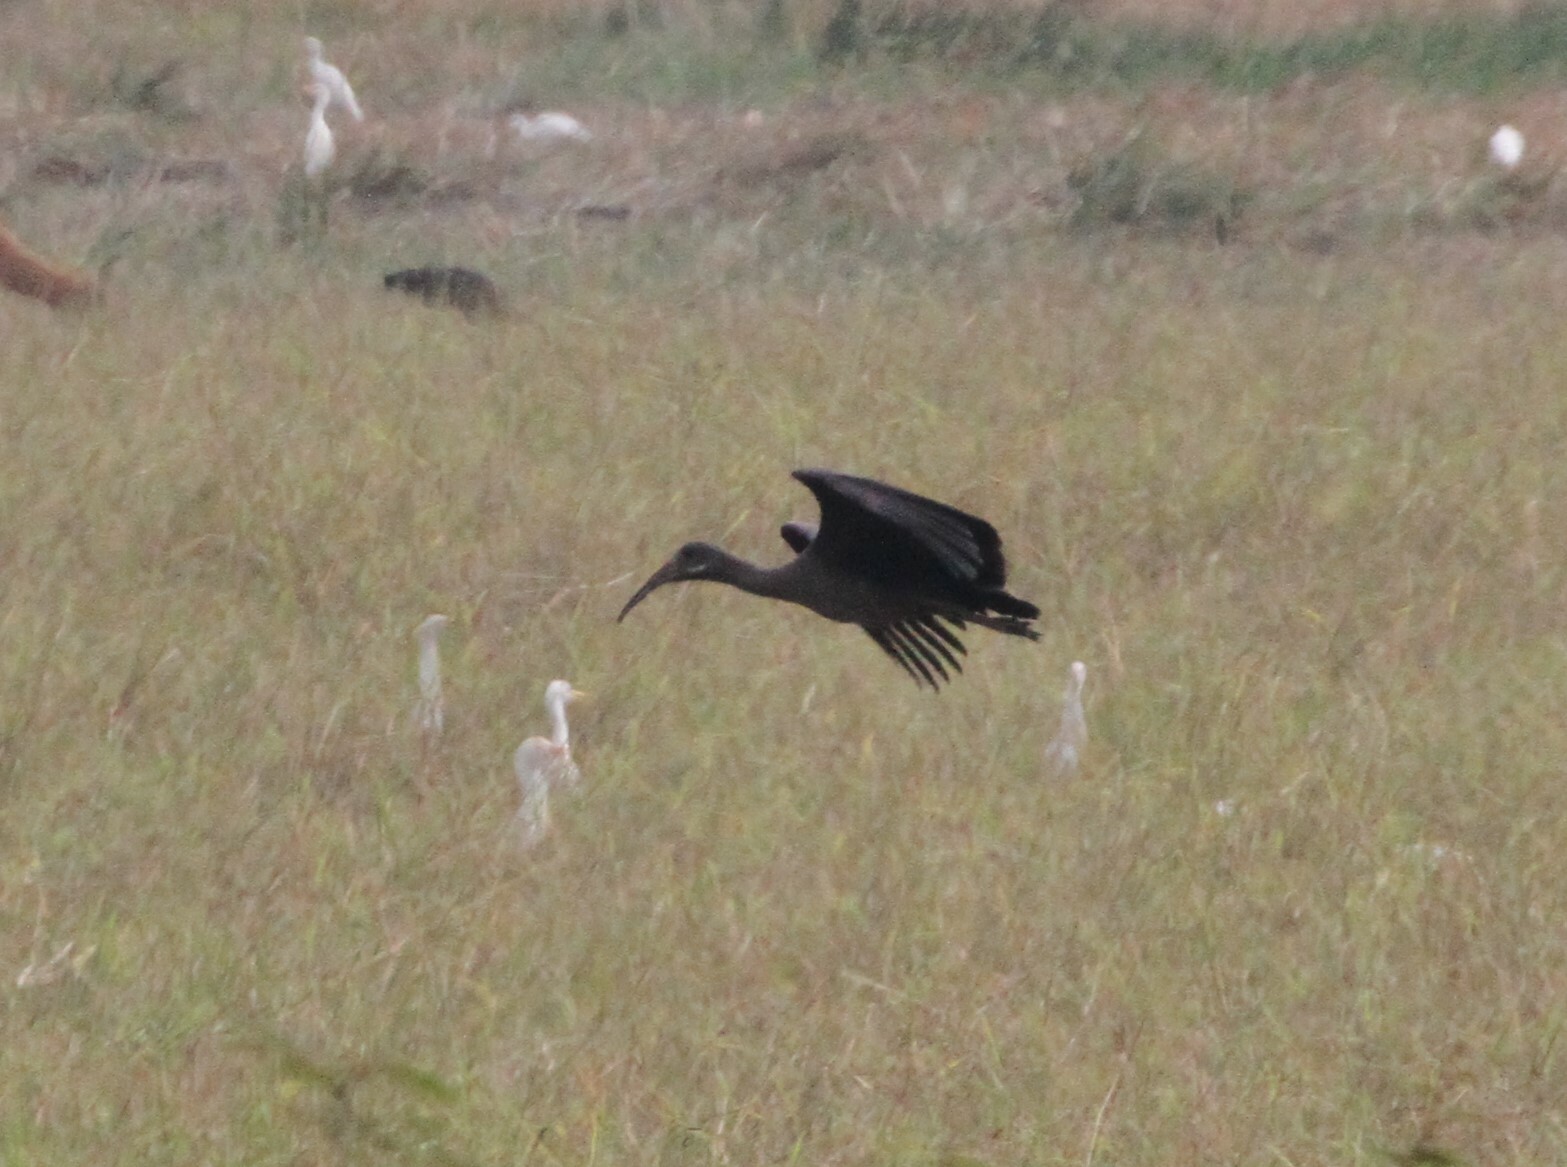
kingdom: Animalia
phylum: Chordata
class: Aves
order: Pelecaniformes
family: Threskiornithidae
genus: Bostrychia
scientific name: Bostrychia hagedash
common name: Hadada ibis
